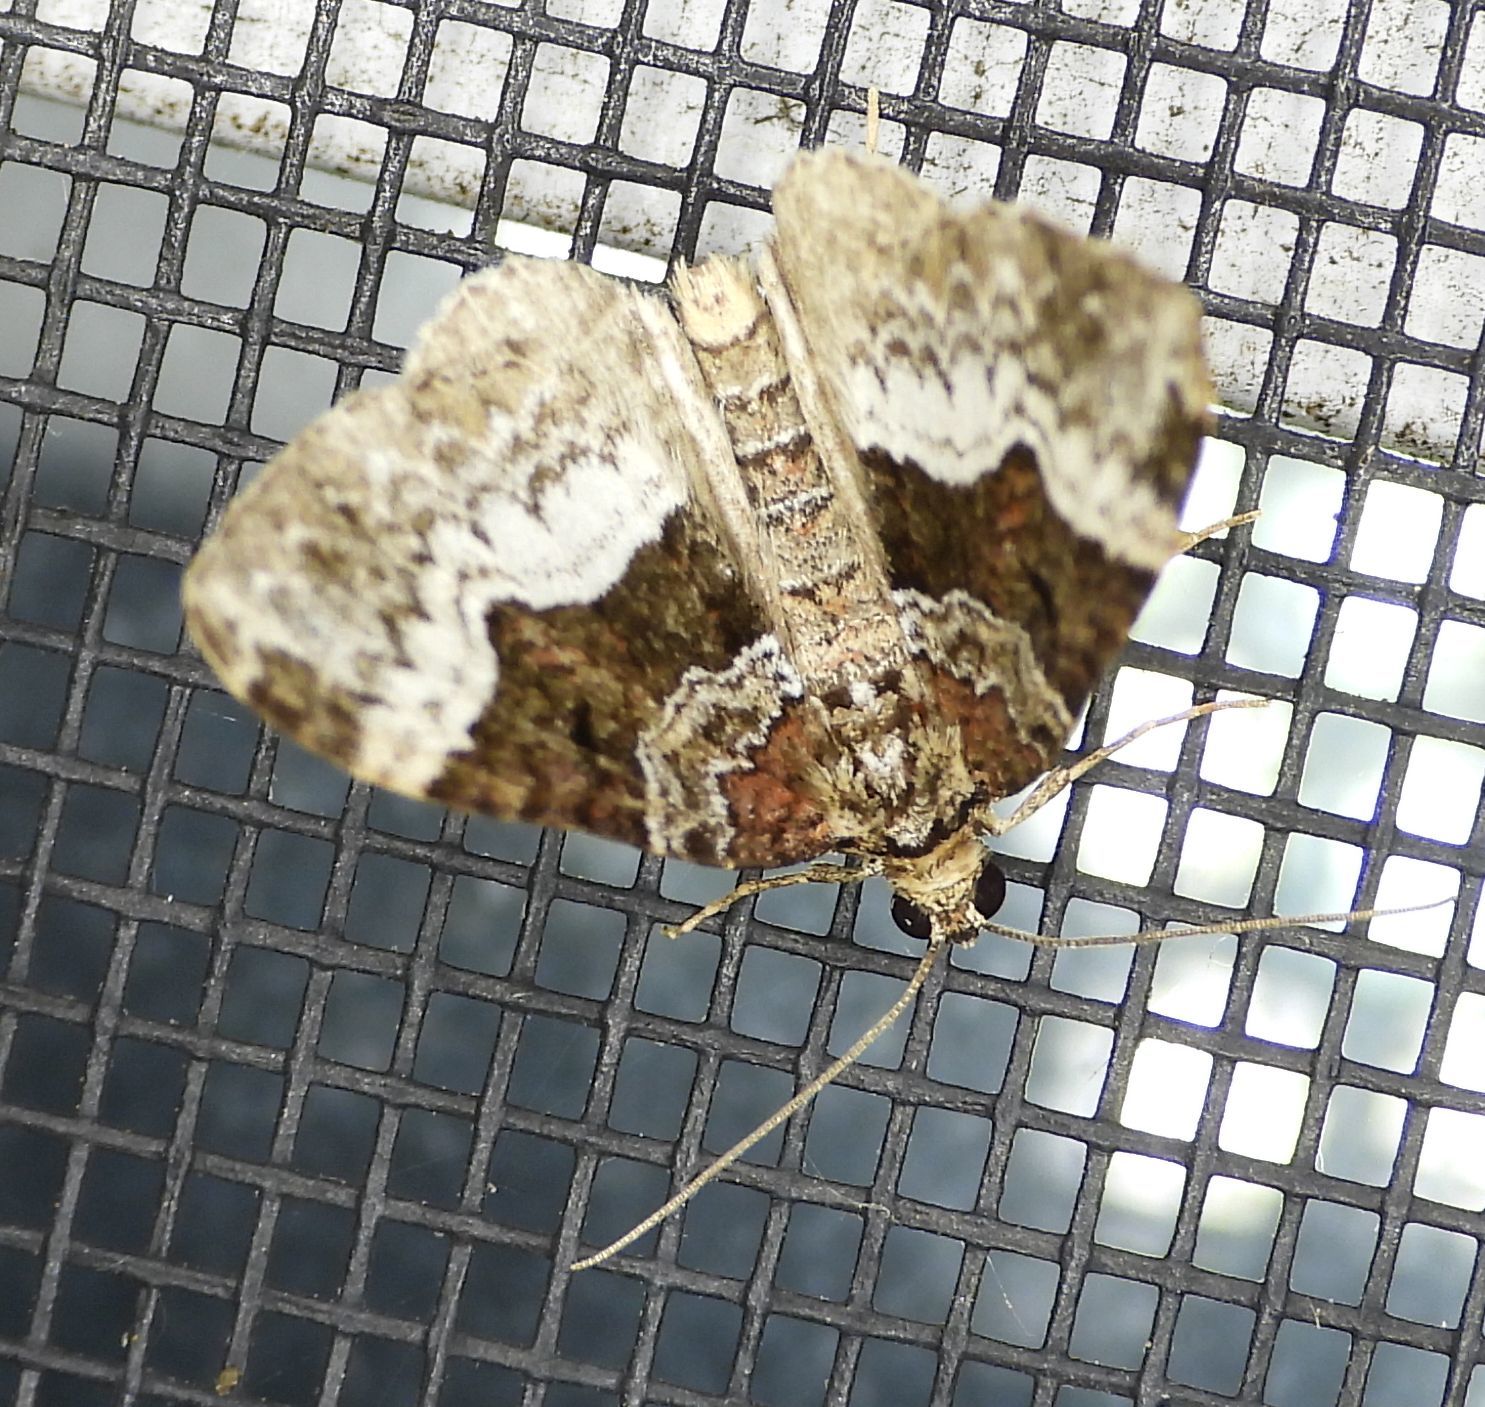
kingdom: Animalia
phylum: Arthropoda
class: Insecta
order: Lepidoptera
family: Geometridae
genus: Euphyia
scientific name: Euphyia intermediata
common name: Sharp-angled carpet
